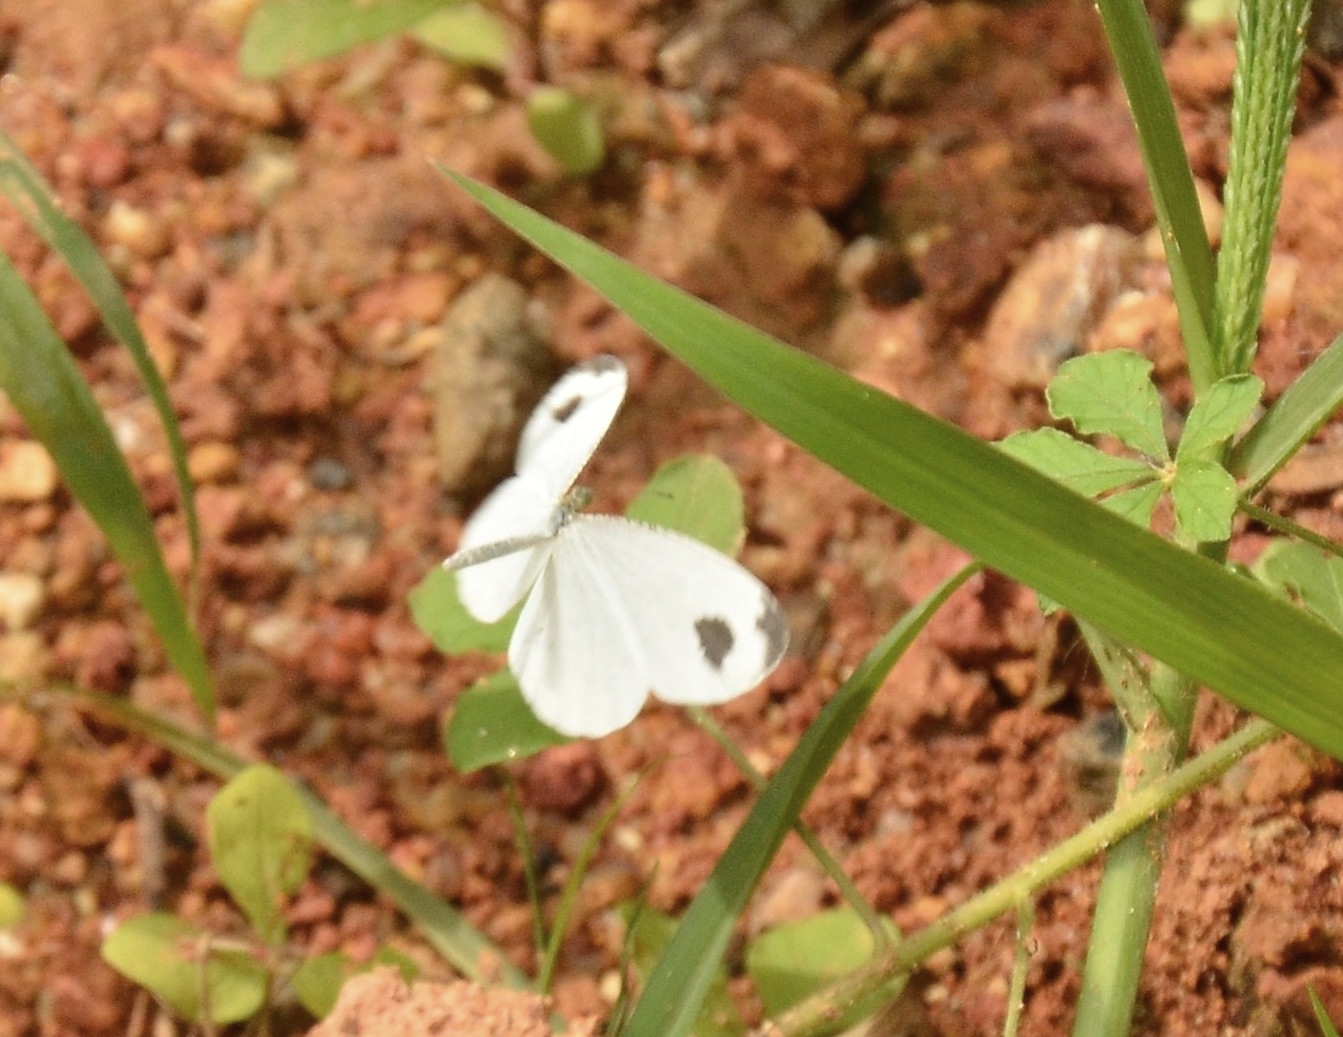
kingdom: Animalia
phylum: Arthropoda
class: Insecta
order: Lepidoptera
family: Pieridae
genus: Leptosia
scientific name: Leptosia nina
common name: Psyche
